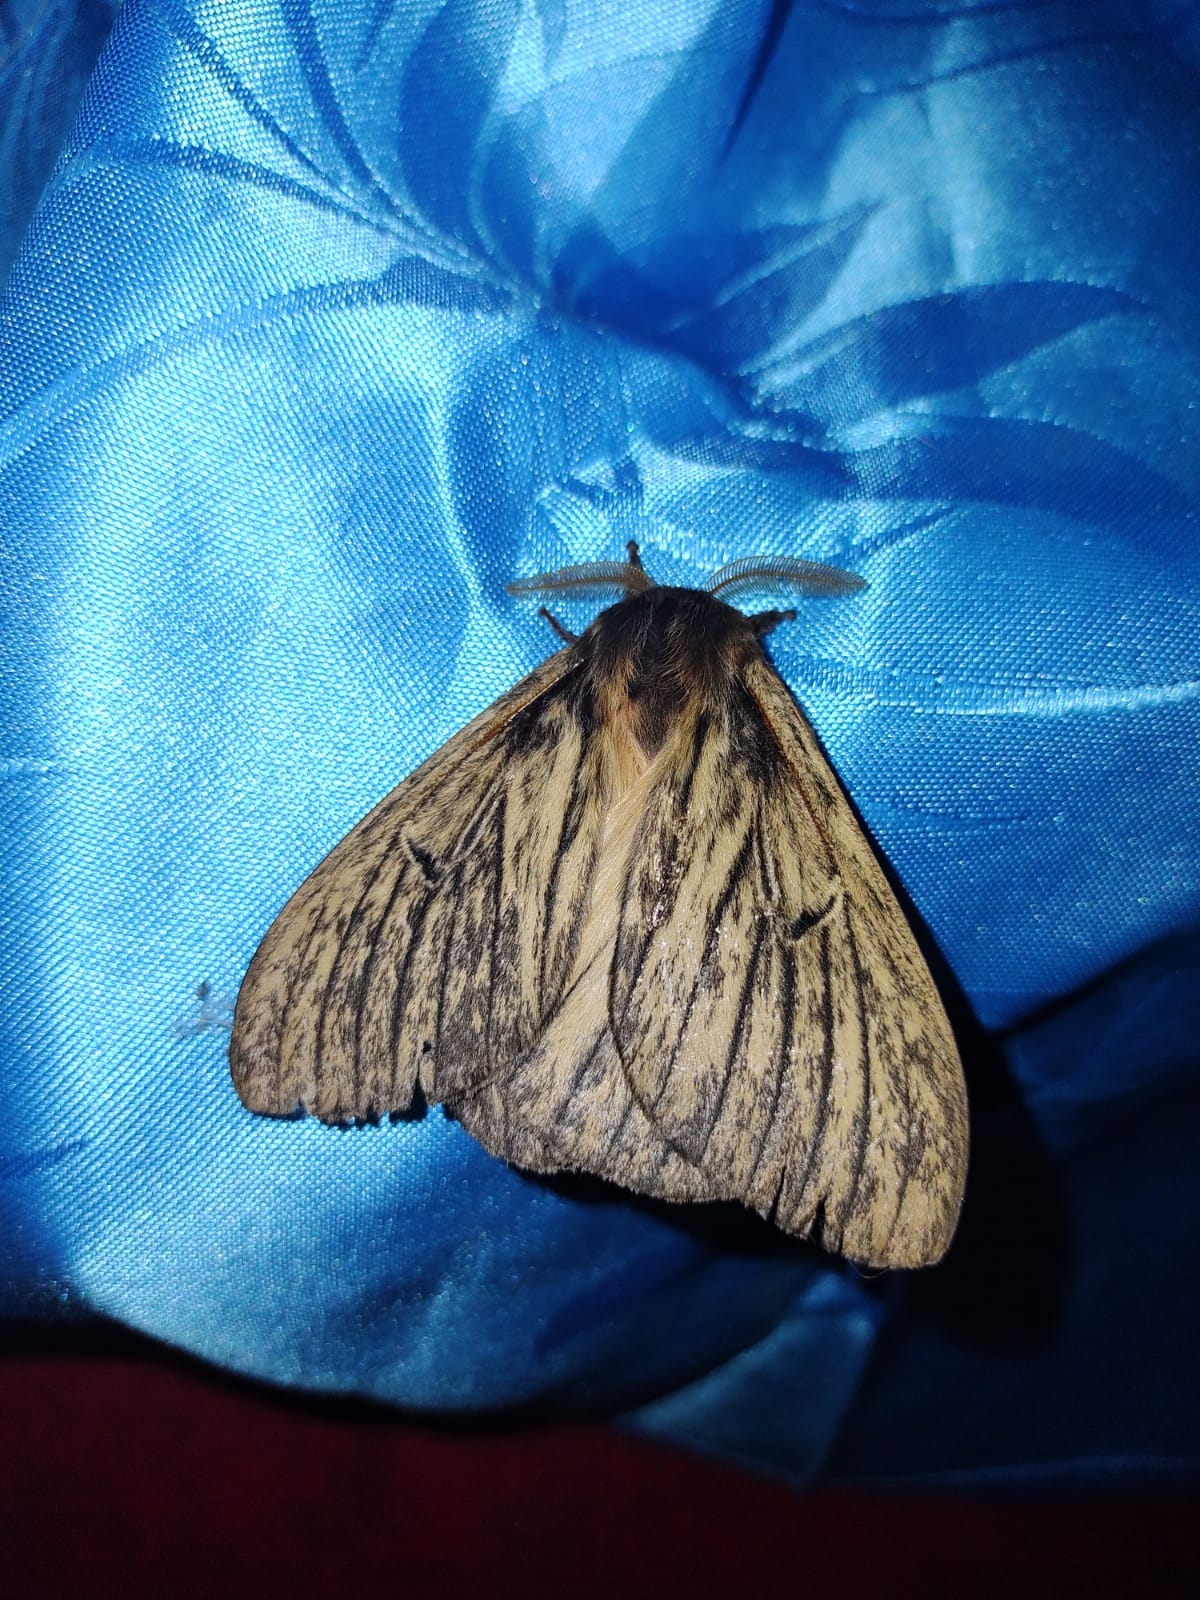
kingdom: Animalia
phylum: Arthropoda
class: Insecta
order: Lepidoptera
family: Saturniidae
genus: Eudyaria
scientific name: Eudyaria zeta
